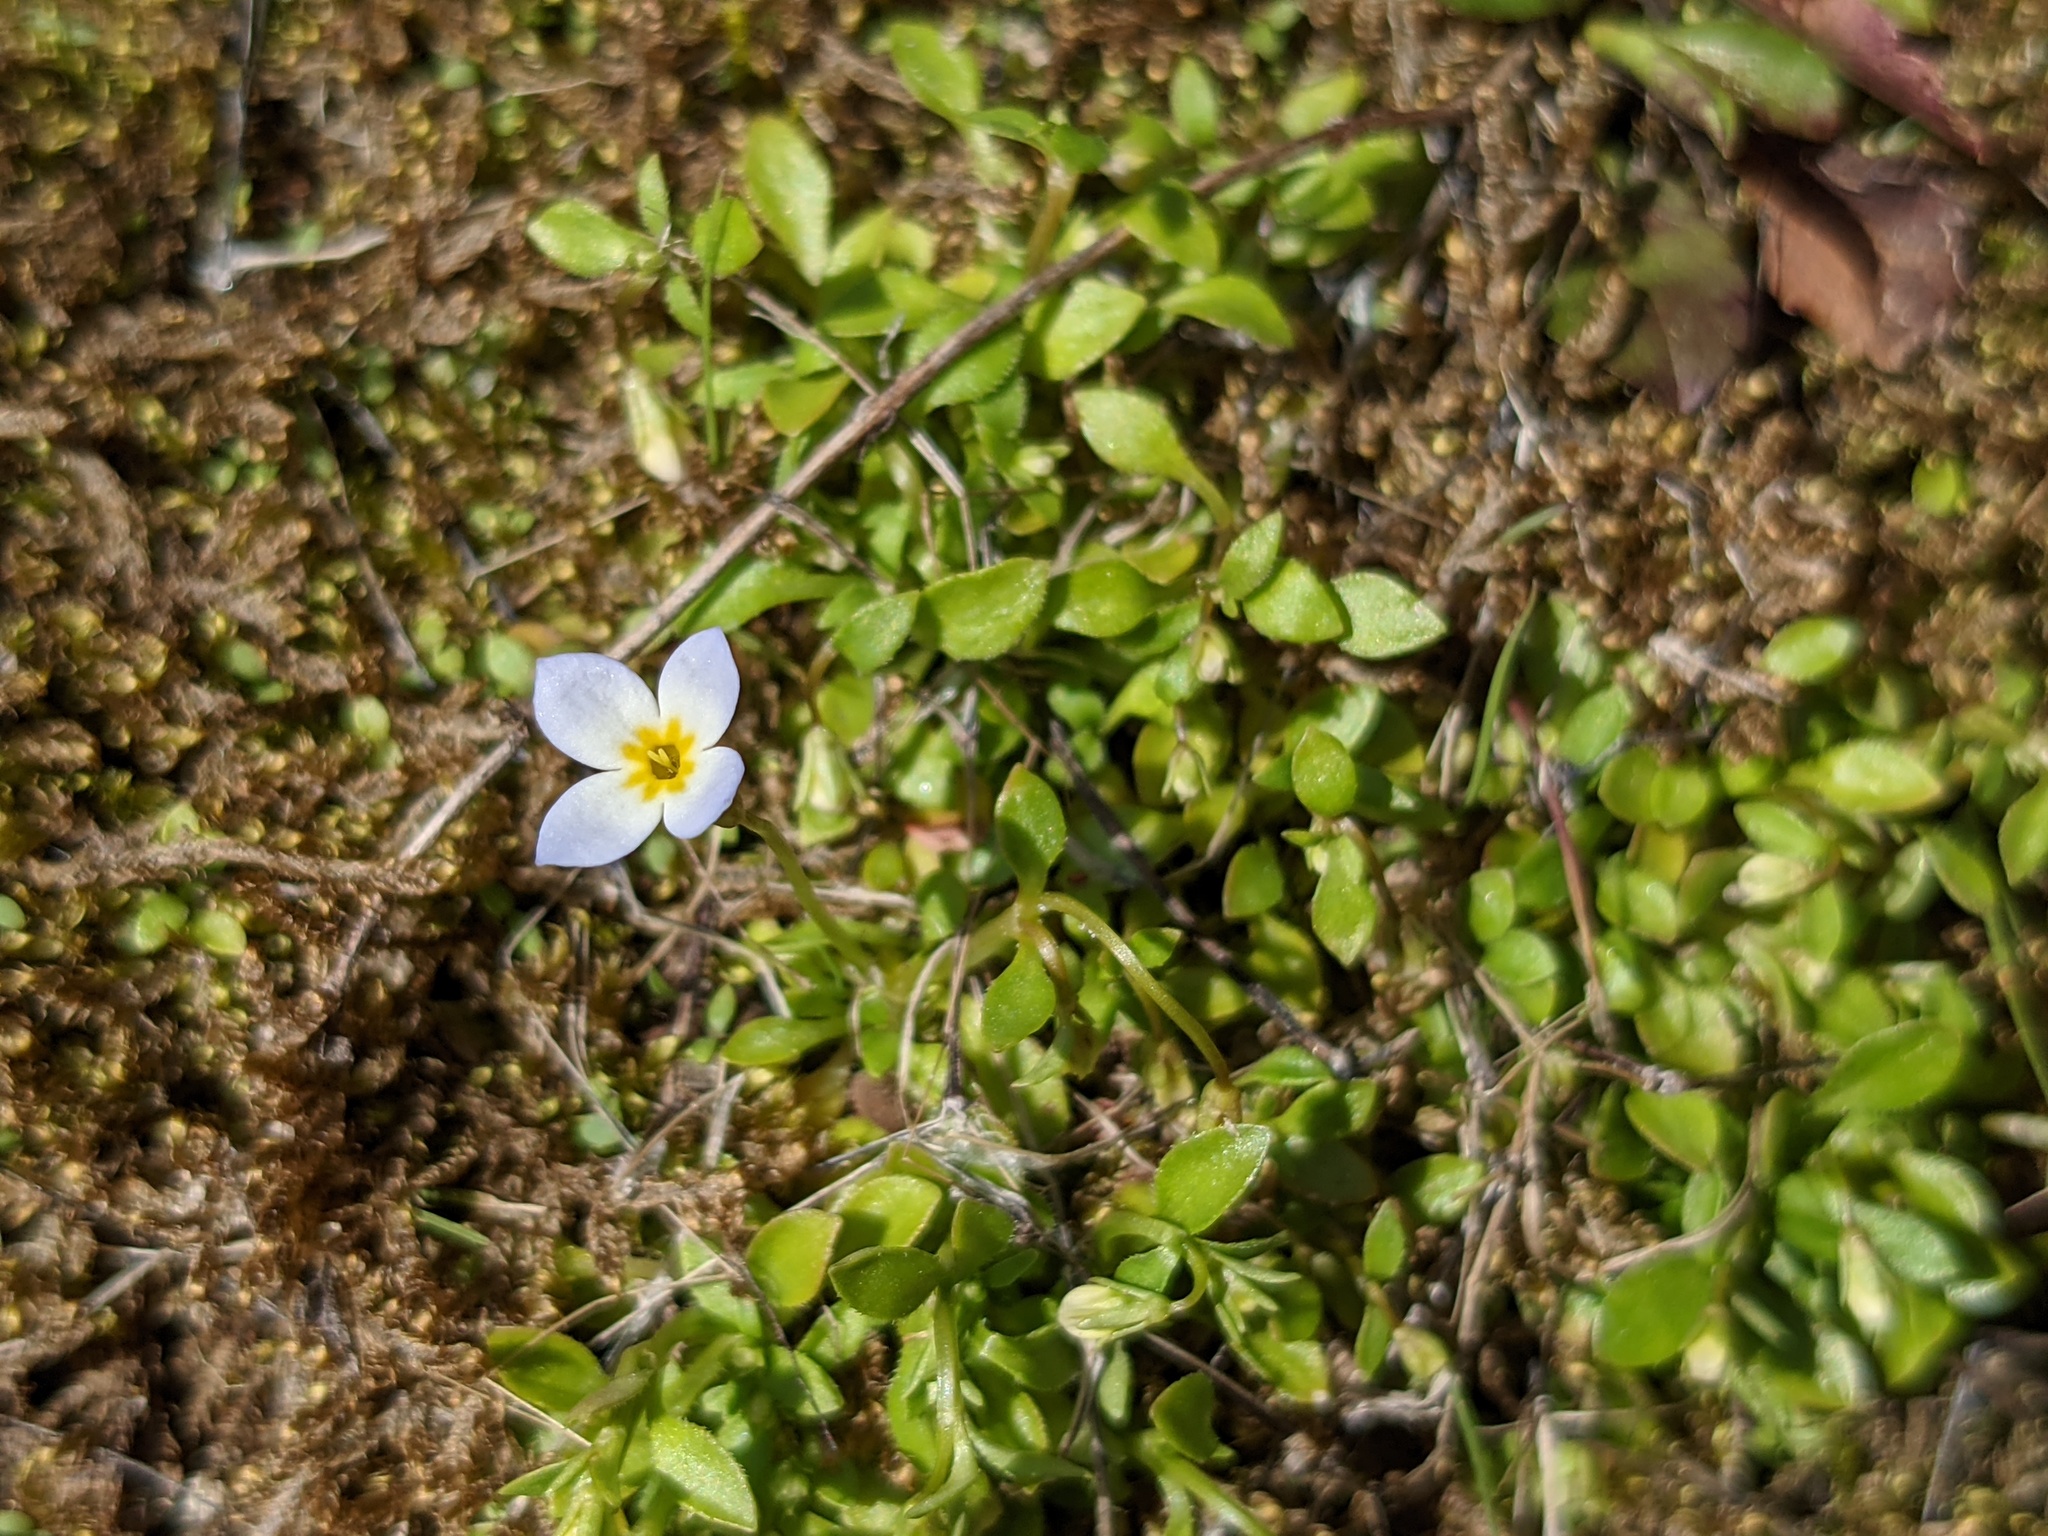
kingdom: Plantae
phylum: Tracheophyta
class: Magnoliopsida
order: Gentianales
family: Rubiaceae
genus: Houstonia
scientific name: Houstonia caerulea
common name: Bluets
